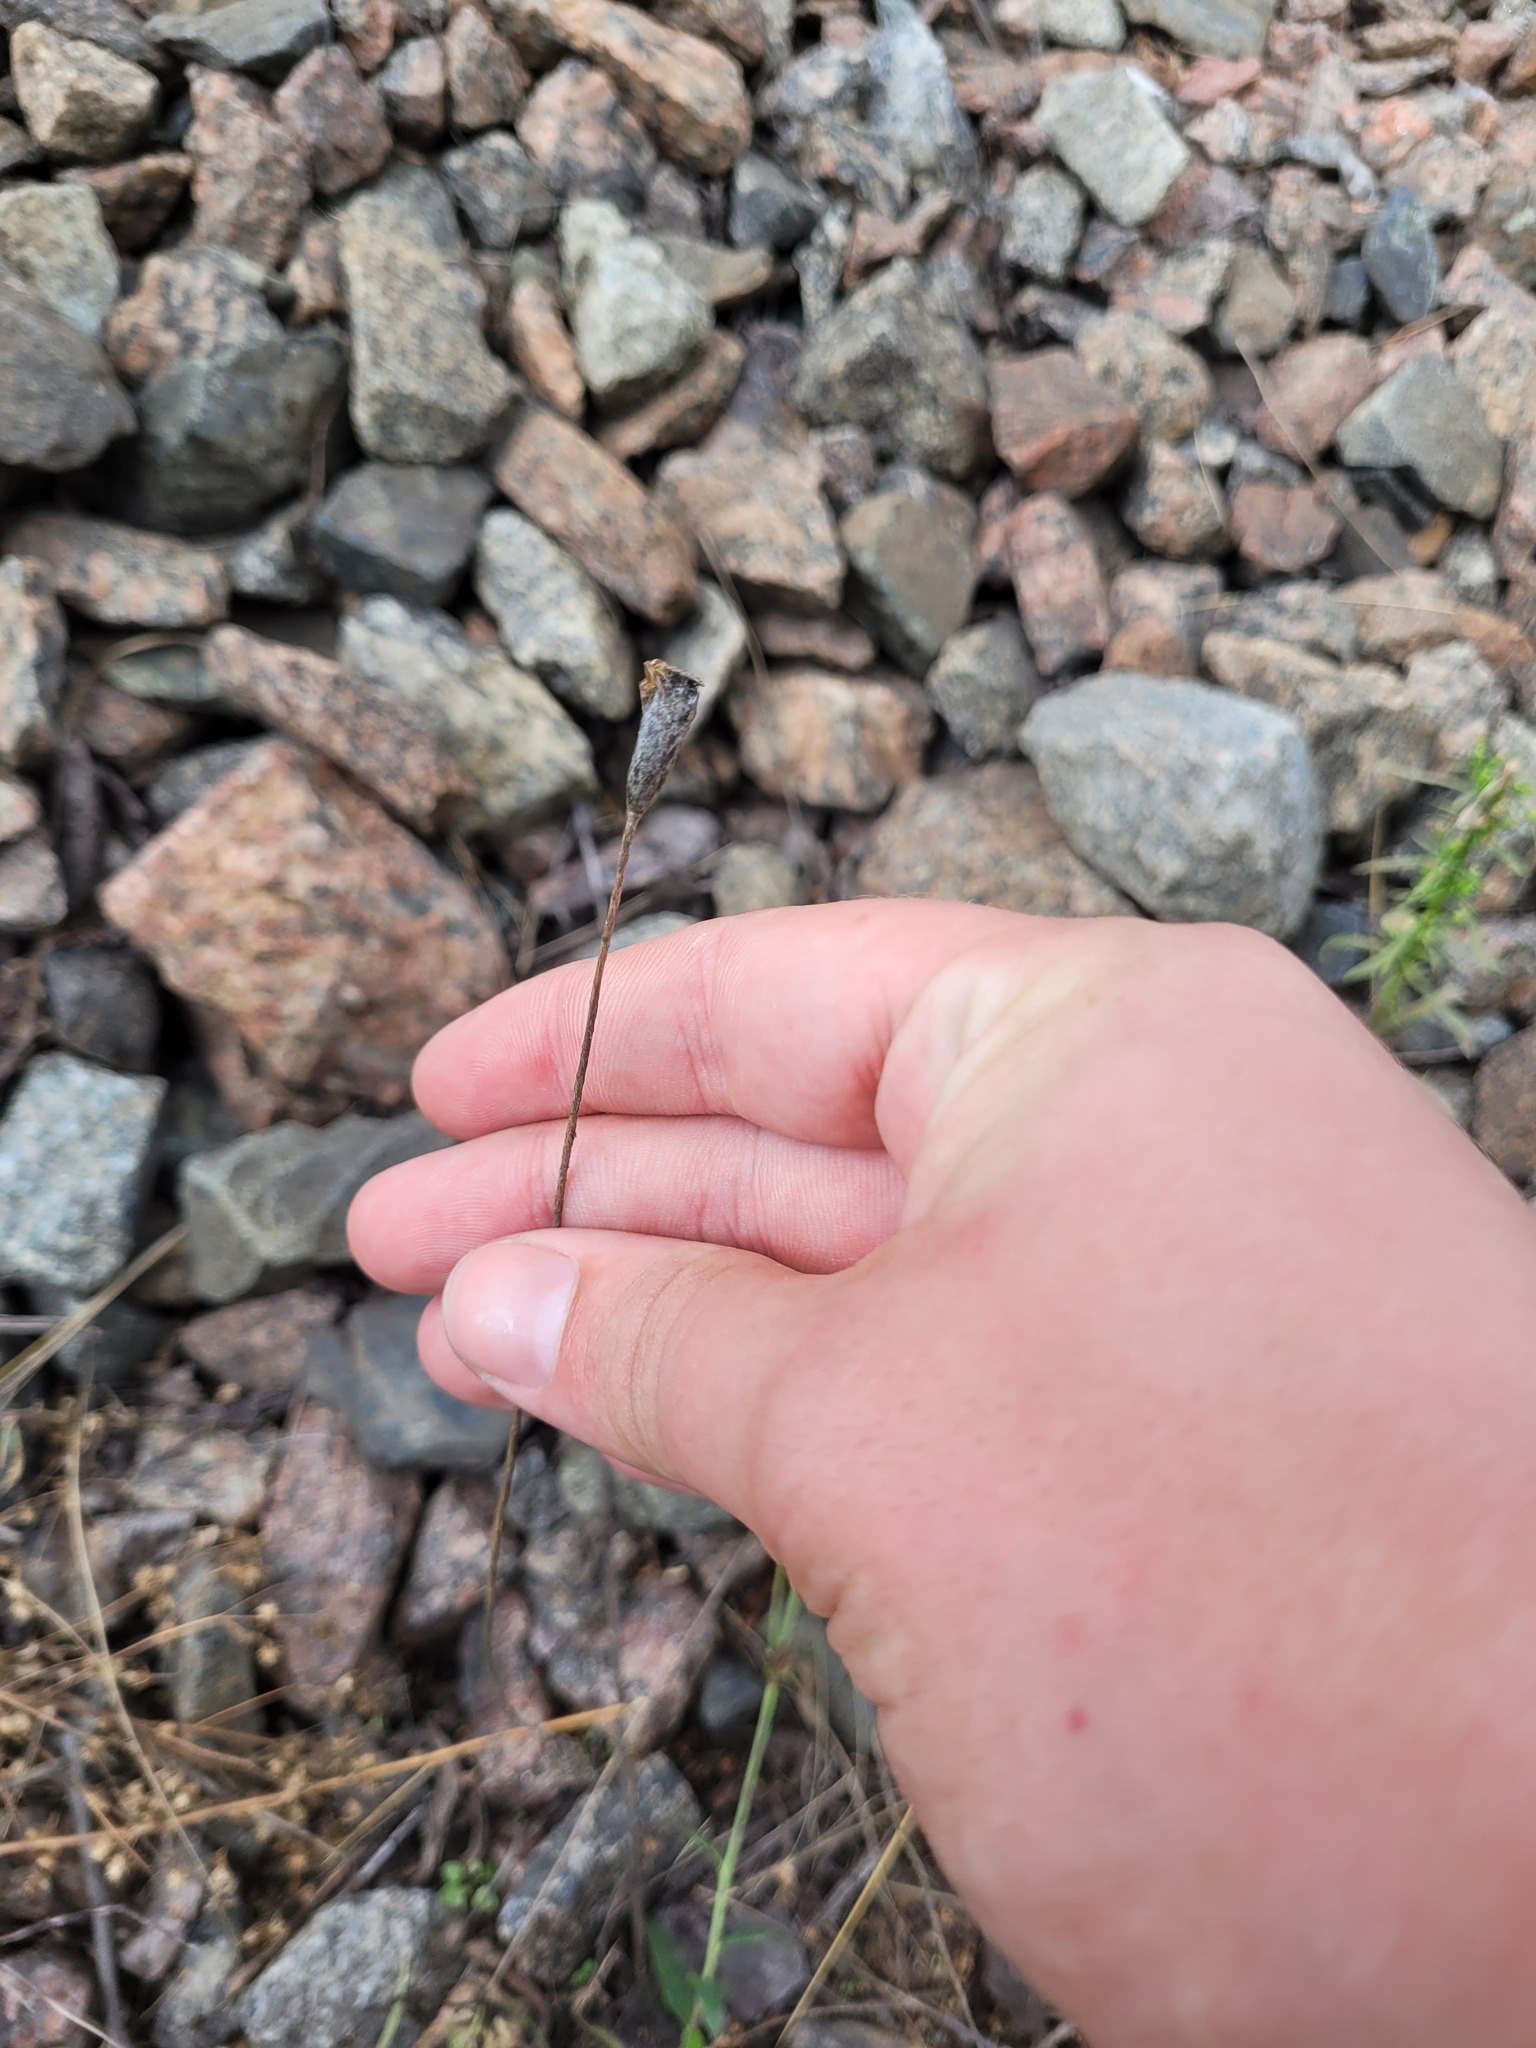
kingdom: Plantae
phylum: Tracheophyta
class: Magnoliopsida
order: Ranunculales
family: Papaveraceae
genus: Papaver
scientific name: Papaver dubium
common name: Long-headed poppy
